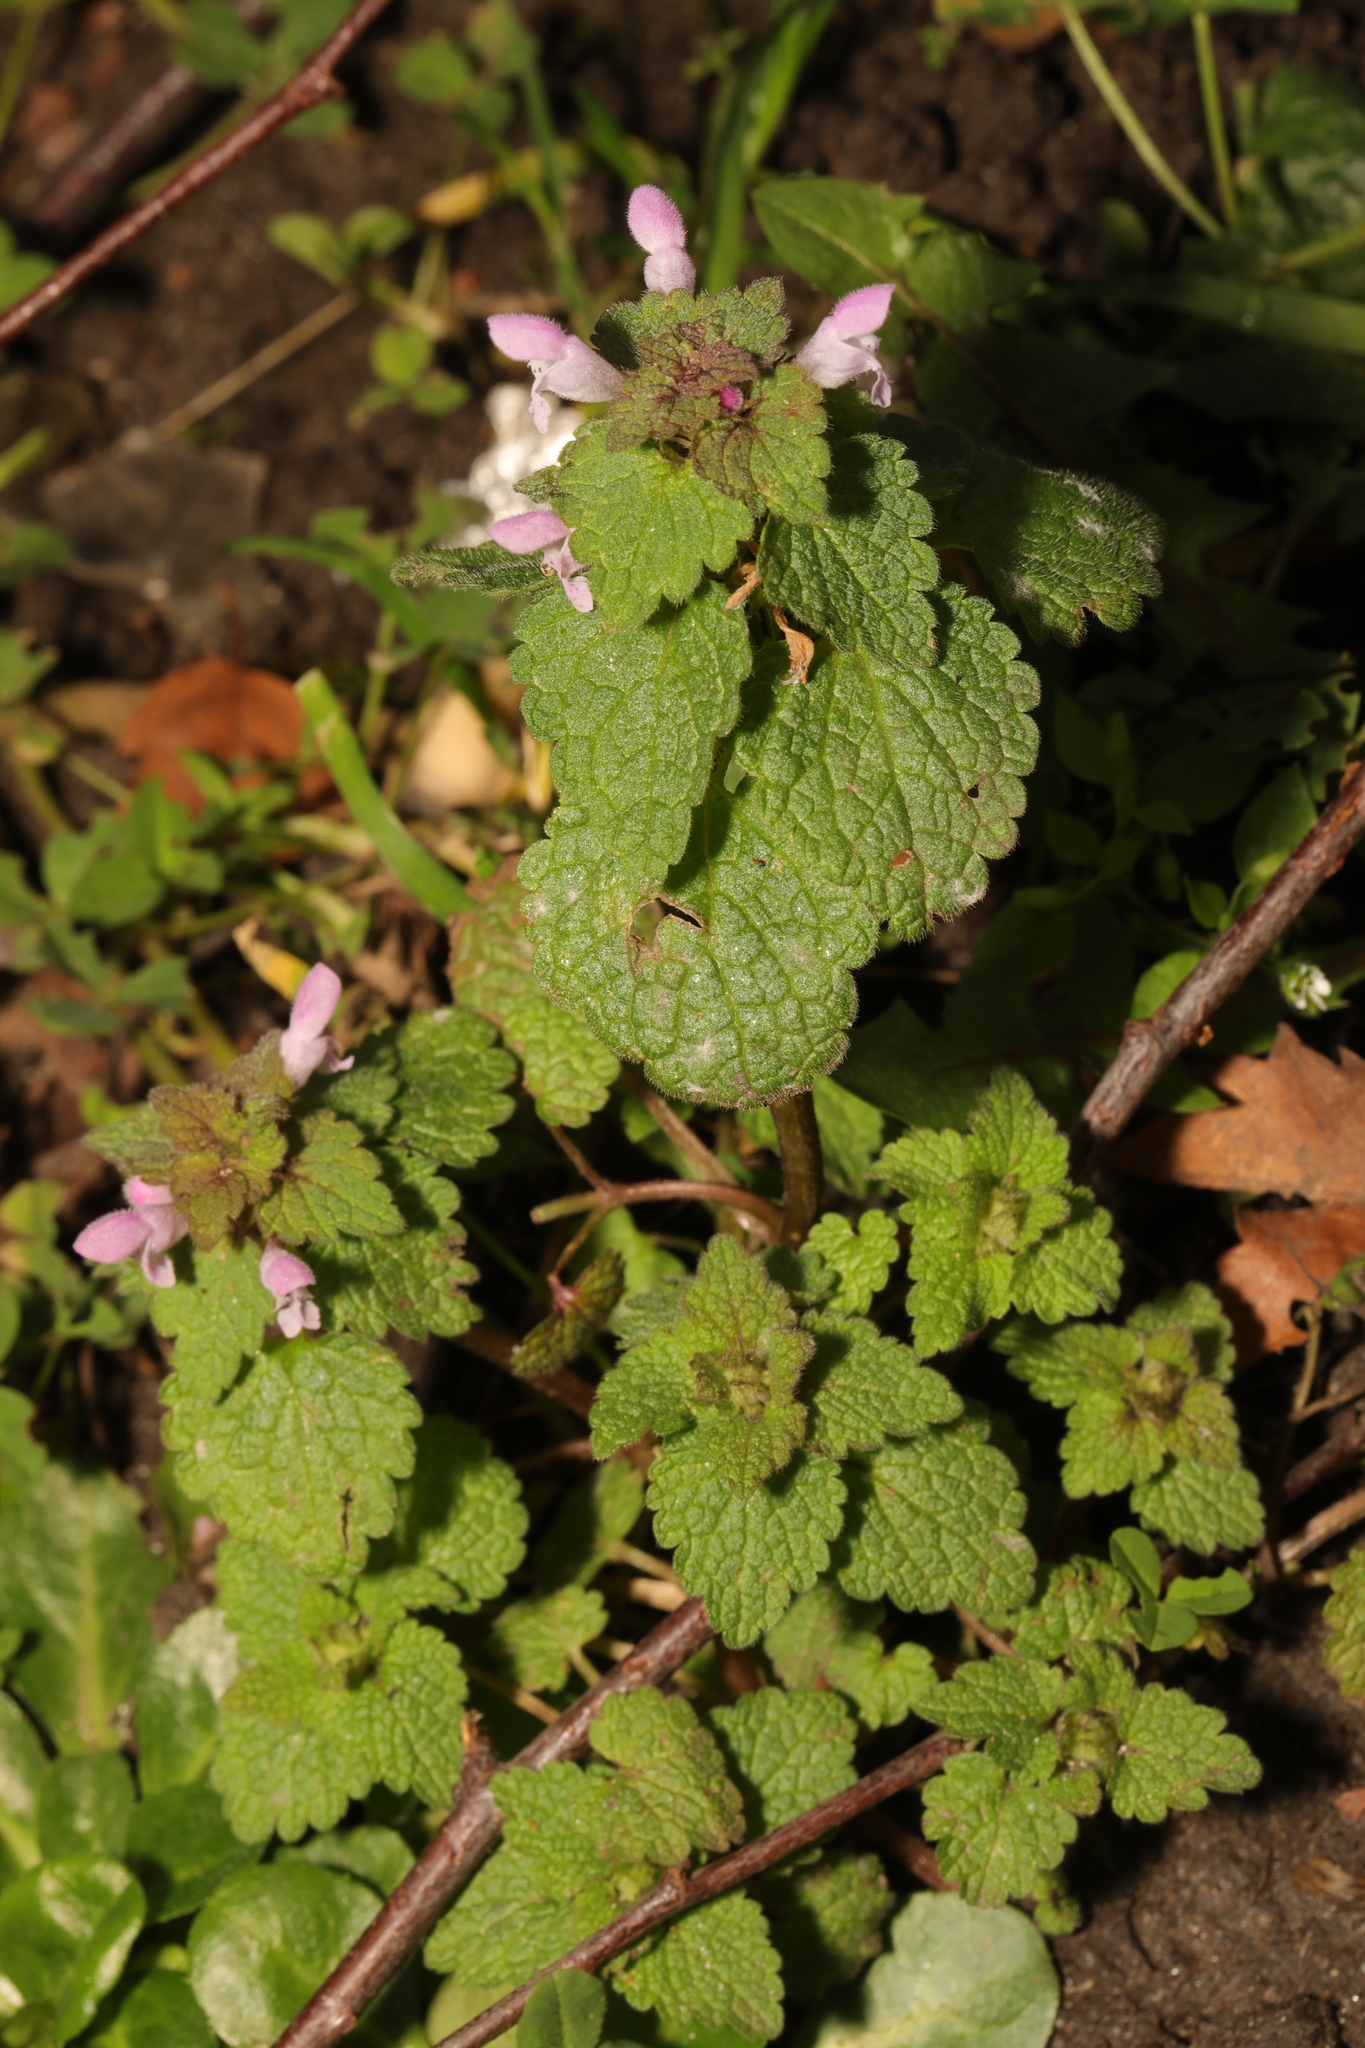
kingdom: Plantae
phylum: Tracheophyta
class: Magnoliopsida
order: Lamiales
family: Lamiaceae
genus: Lamium
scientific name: Lamium purpureum
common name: Red dead-nettle
